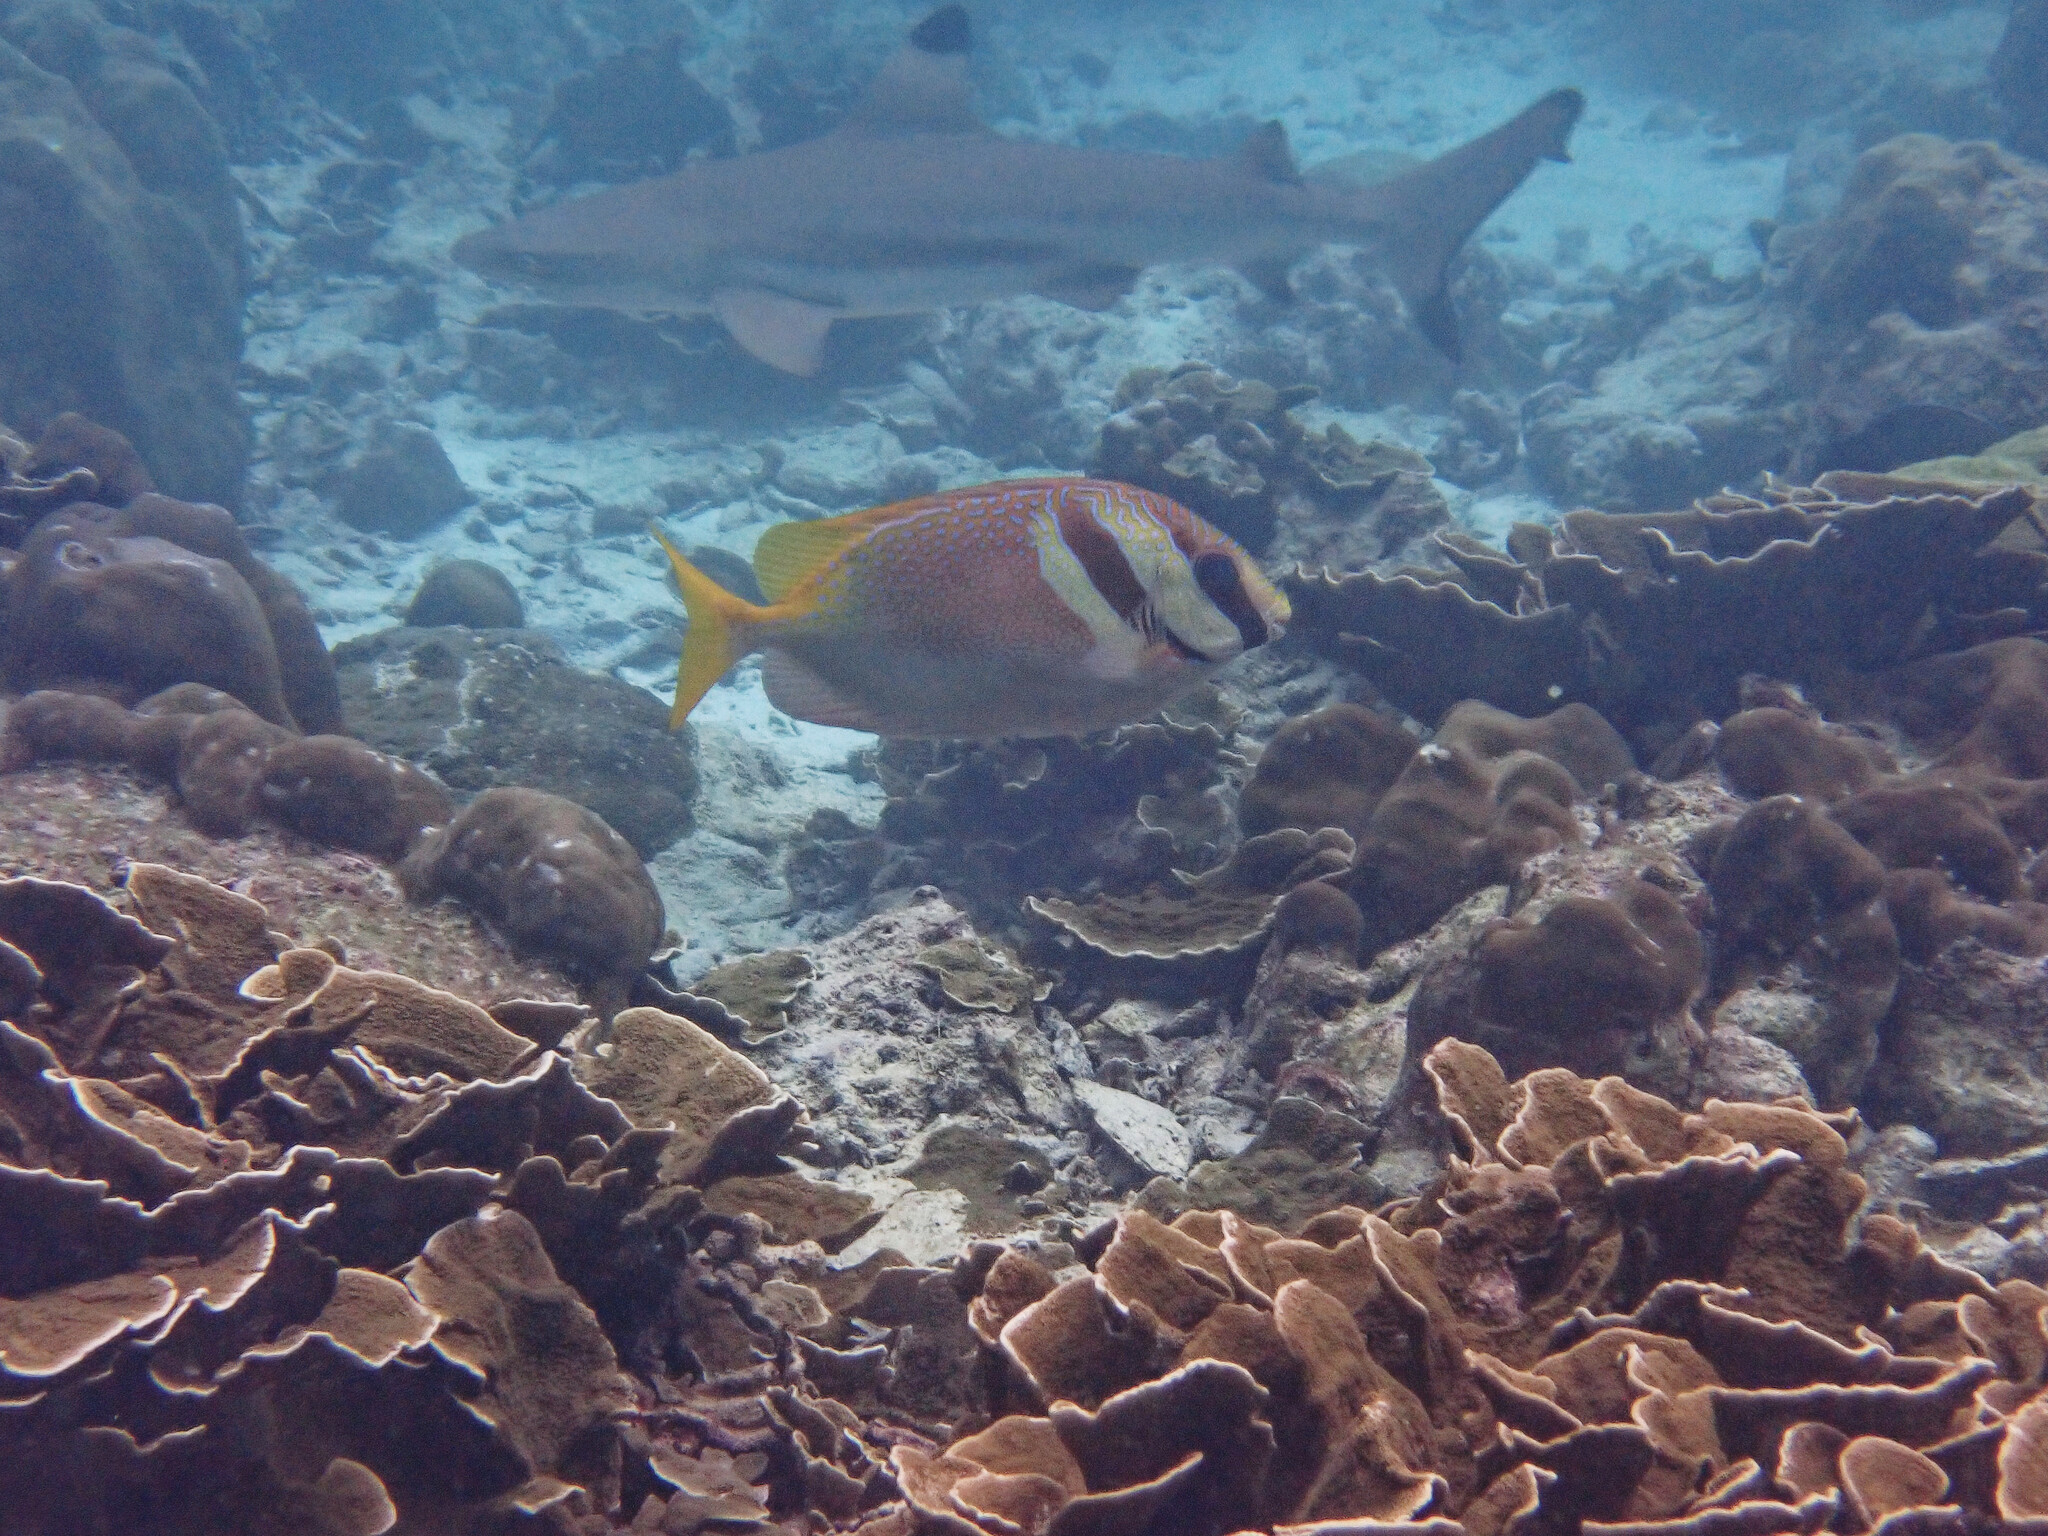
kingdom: Animalia
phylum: Chordata
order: Perciformes
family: Siganidae
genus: Siganus
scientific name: Siganus virgatus
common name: Barhead spinefoot
